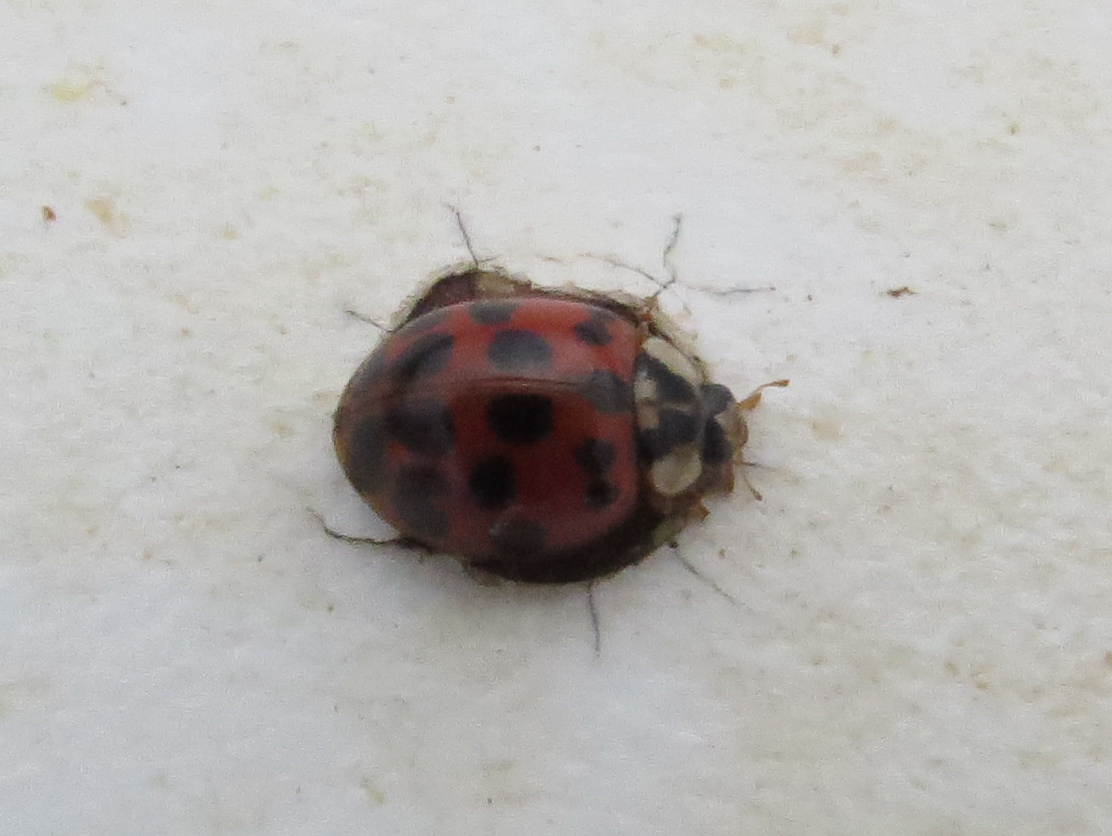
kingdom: Animalia
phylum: Arthropoda
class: Insecta
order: Coleoptera
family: Coccinellidae
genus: Harmonia
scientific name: Harmonia axyridis
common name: Harlequin ladybird
